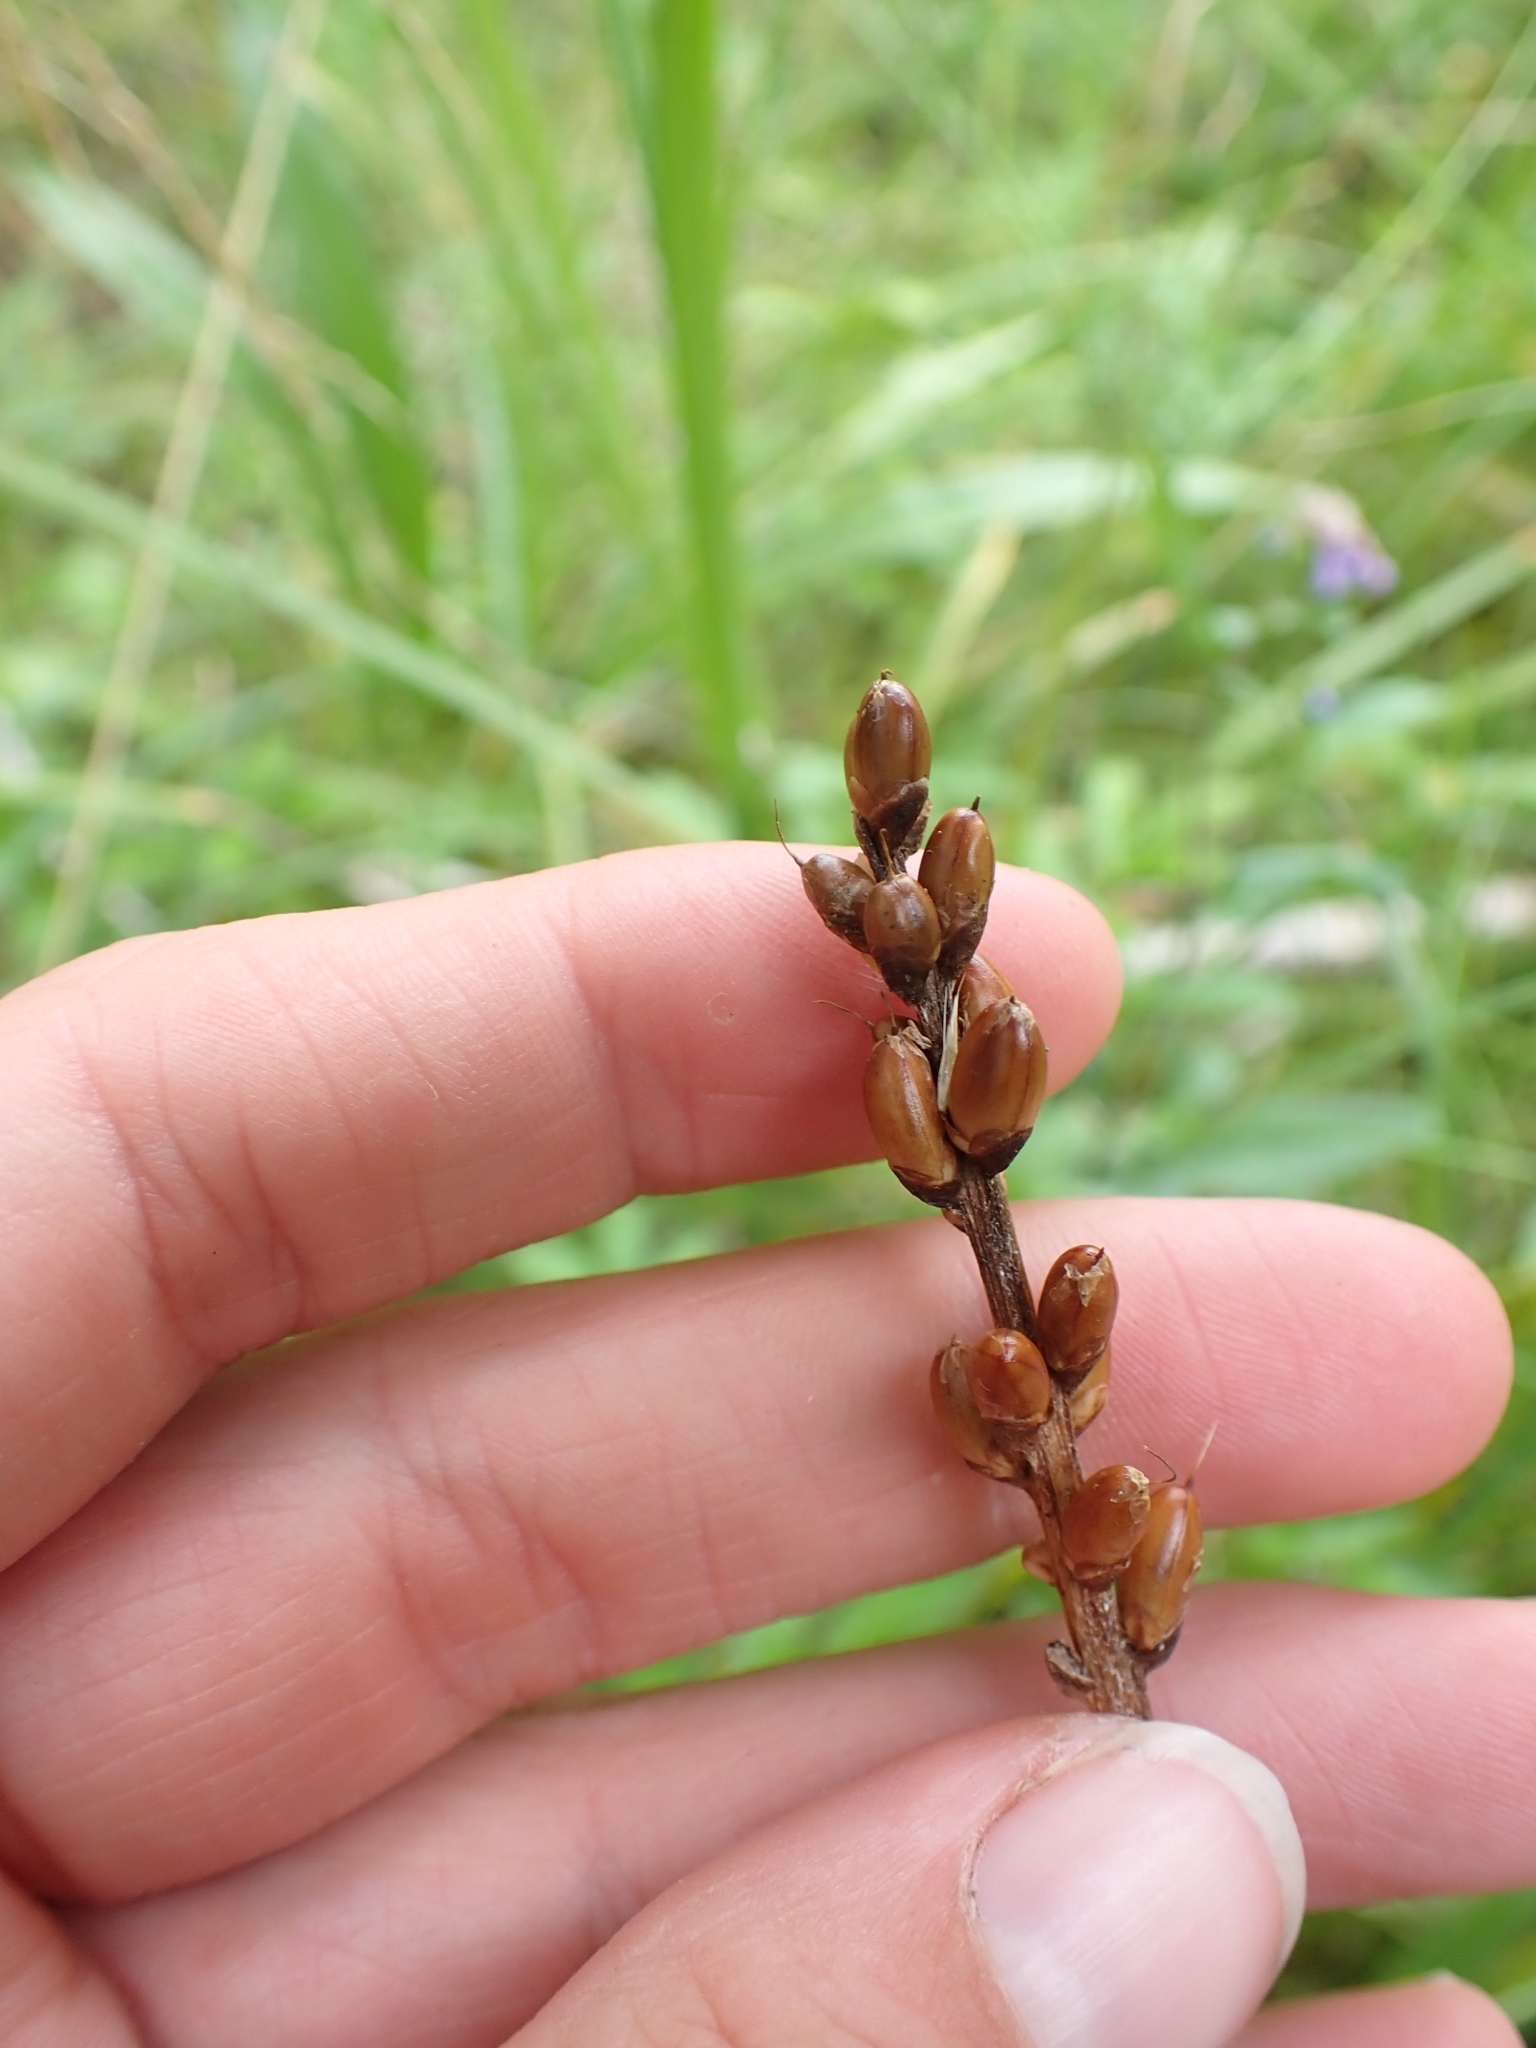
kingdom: Plantae
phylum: Tracheophyta
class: Magnoliopsida
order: Lamiales
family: Plantaginaceae
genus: Plantago
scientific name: Plantago macrocarpa
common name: Alaska plantain
